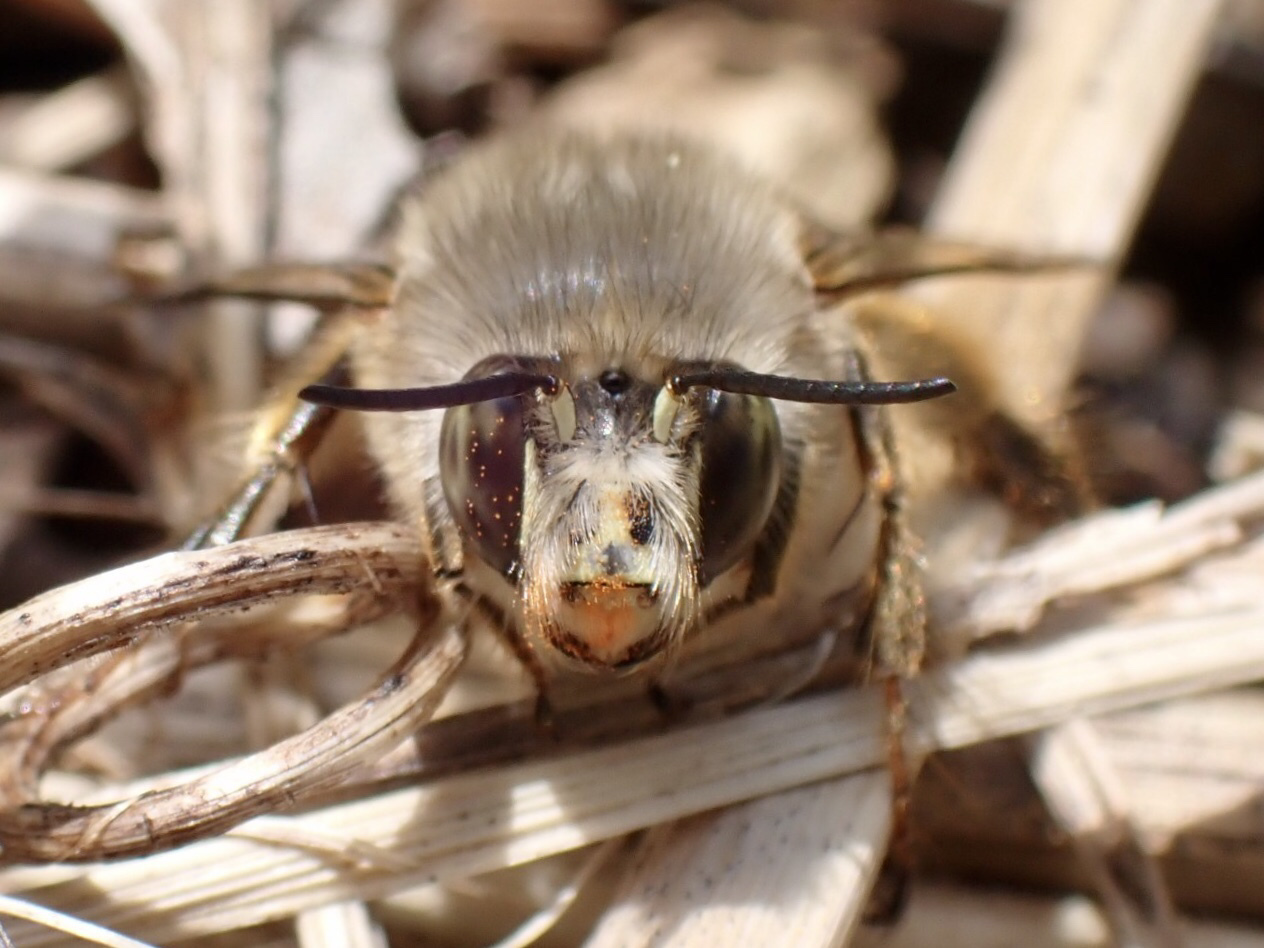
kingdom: Animalia
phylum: Arthropoda
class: Insecta
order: Hymenoptera
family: Apidae
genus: Anthophora
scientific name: Anthophora villosula
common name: Asian shaggy digger
